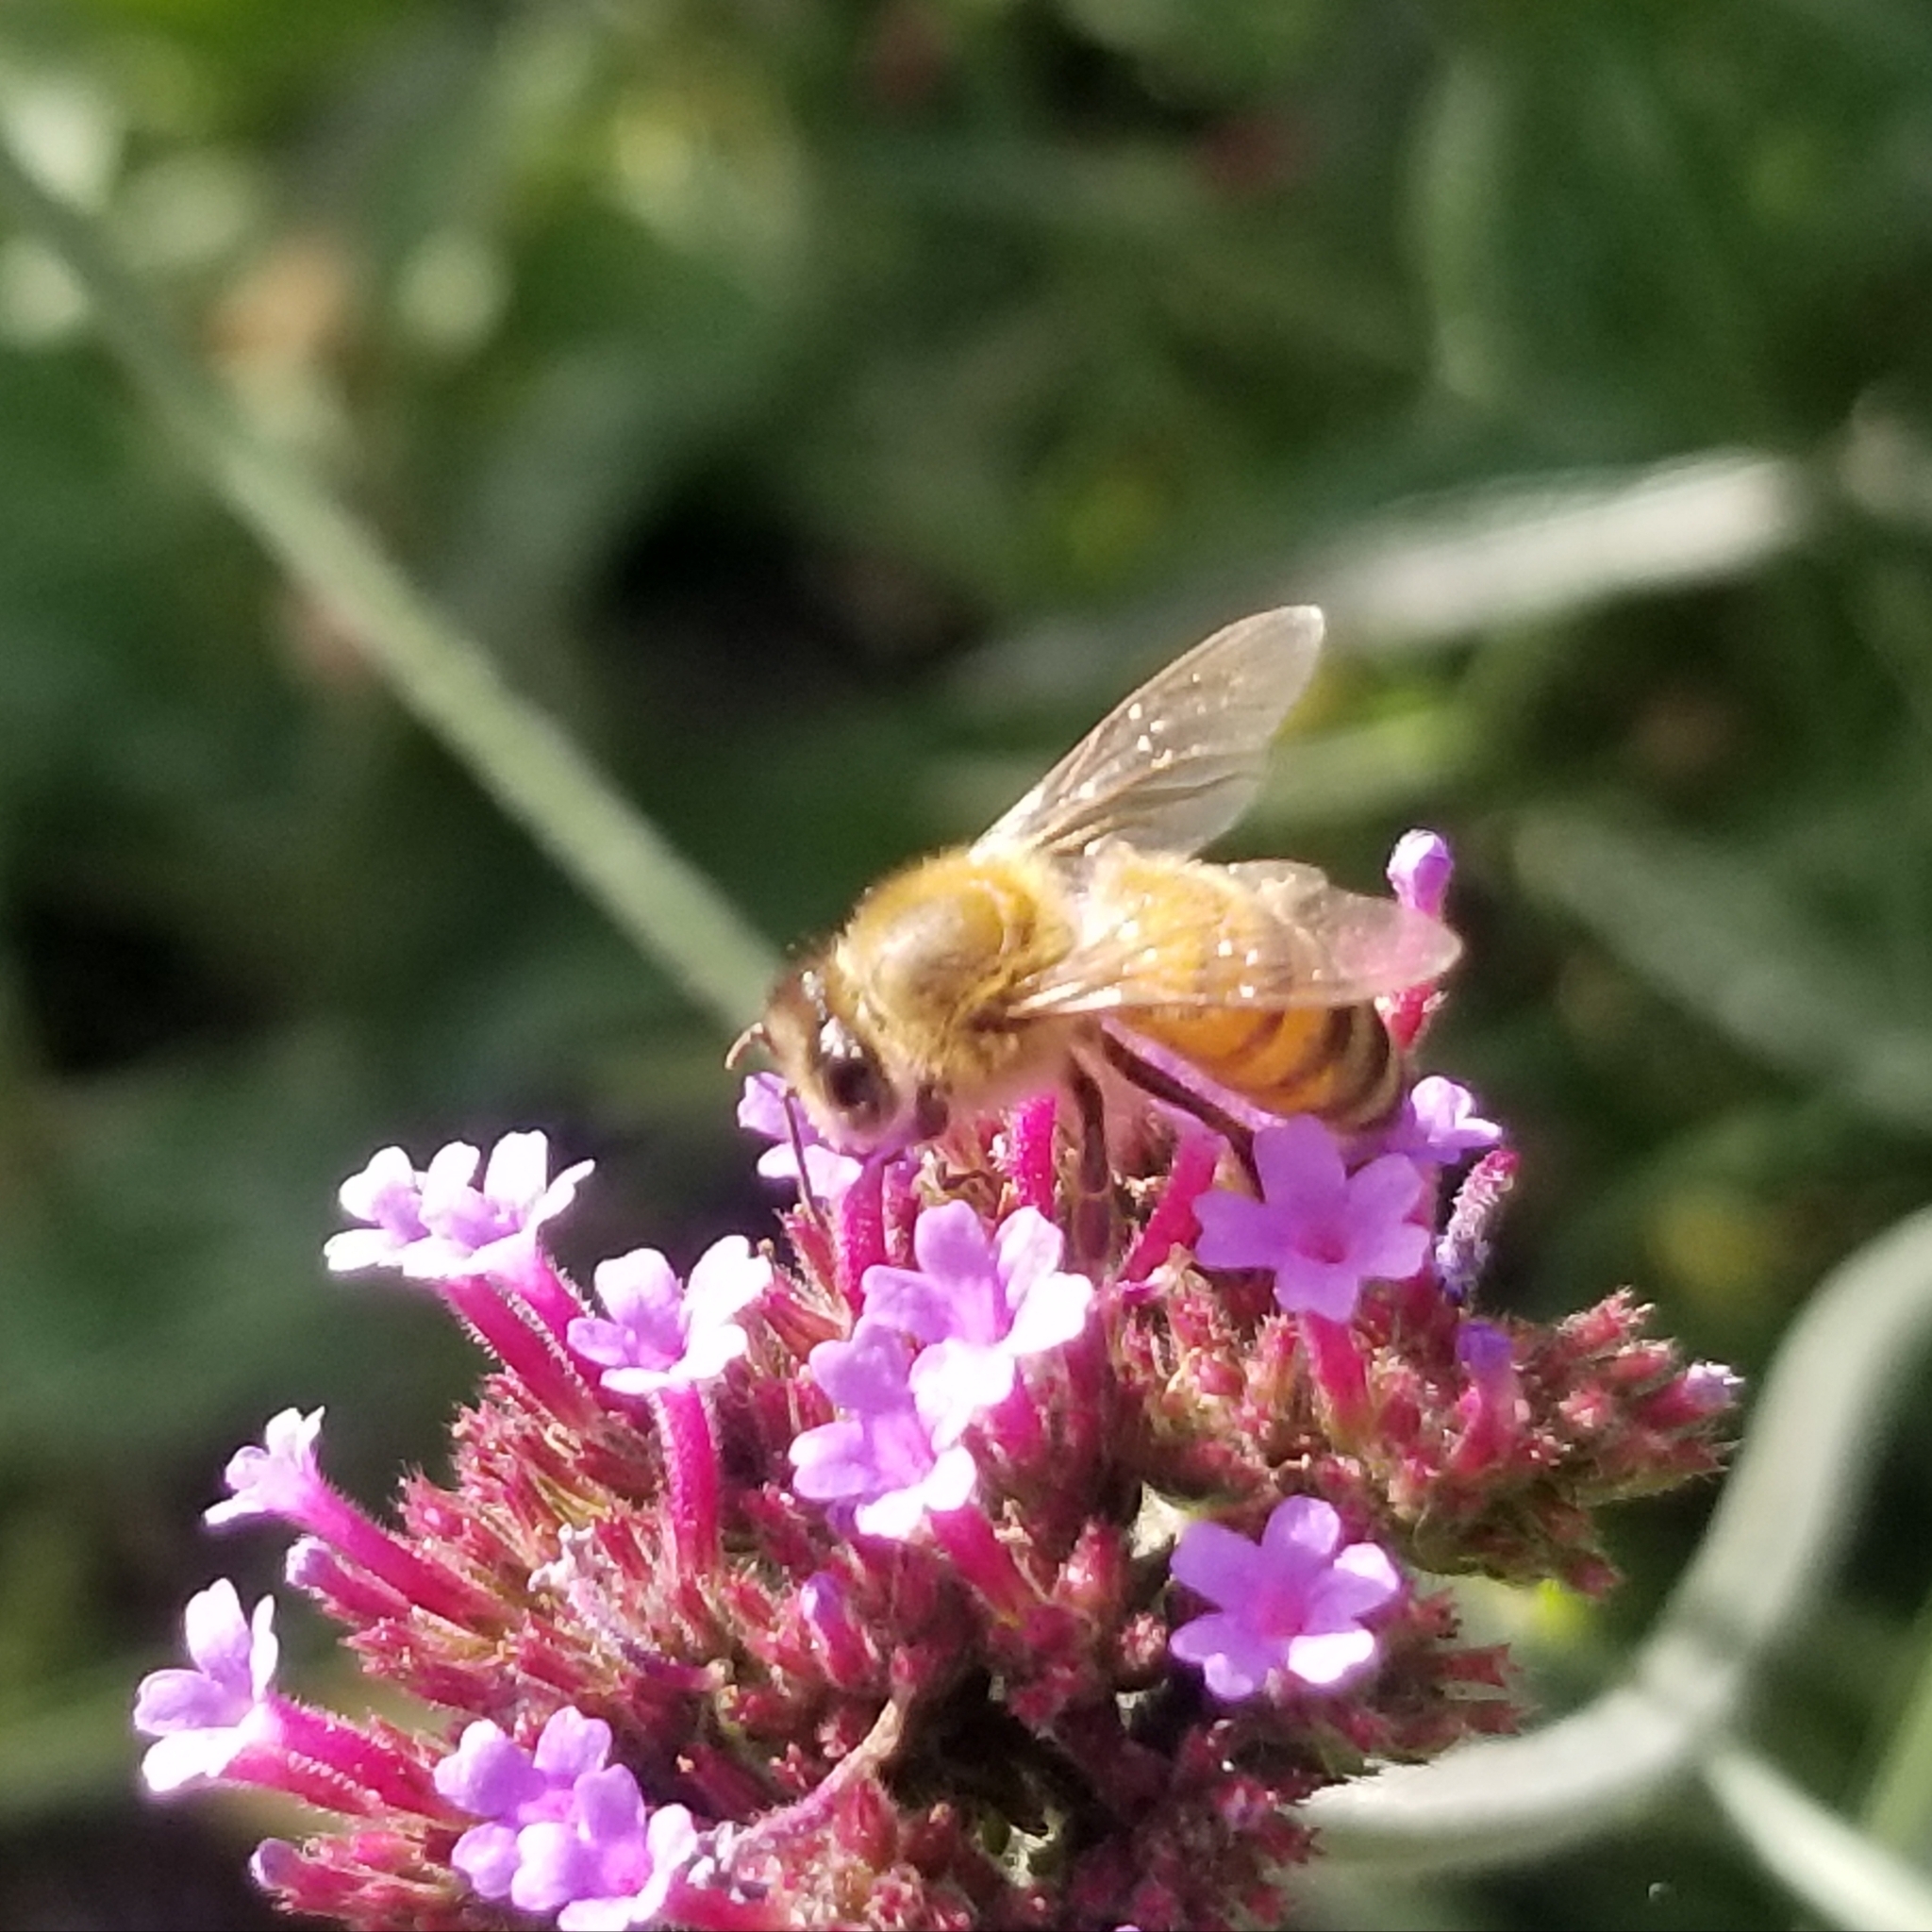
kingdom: Animalia
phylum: Arthropoda
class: Insecta
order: Hymenoptera
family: Apidae
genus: Apis
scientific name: Apis mellifera
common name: Honey bee
